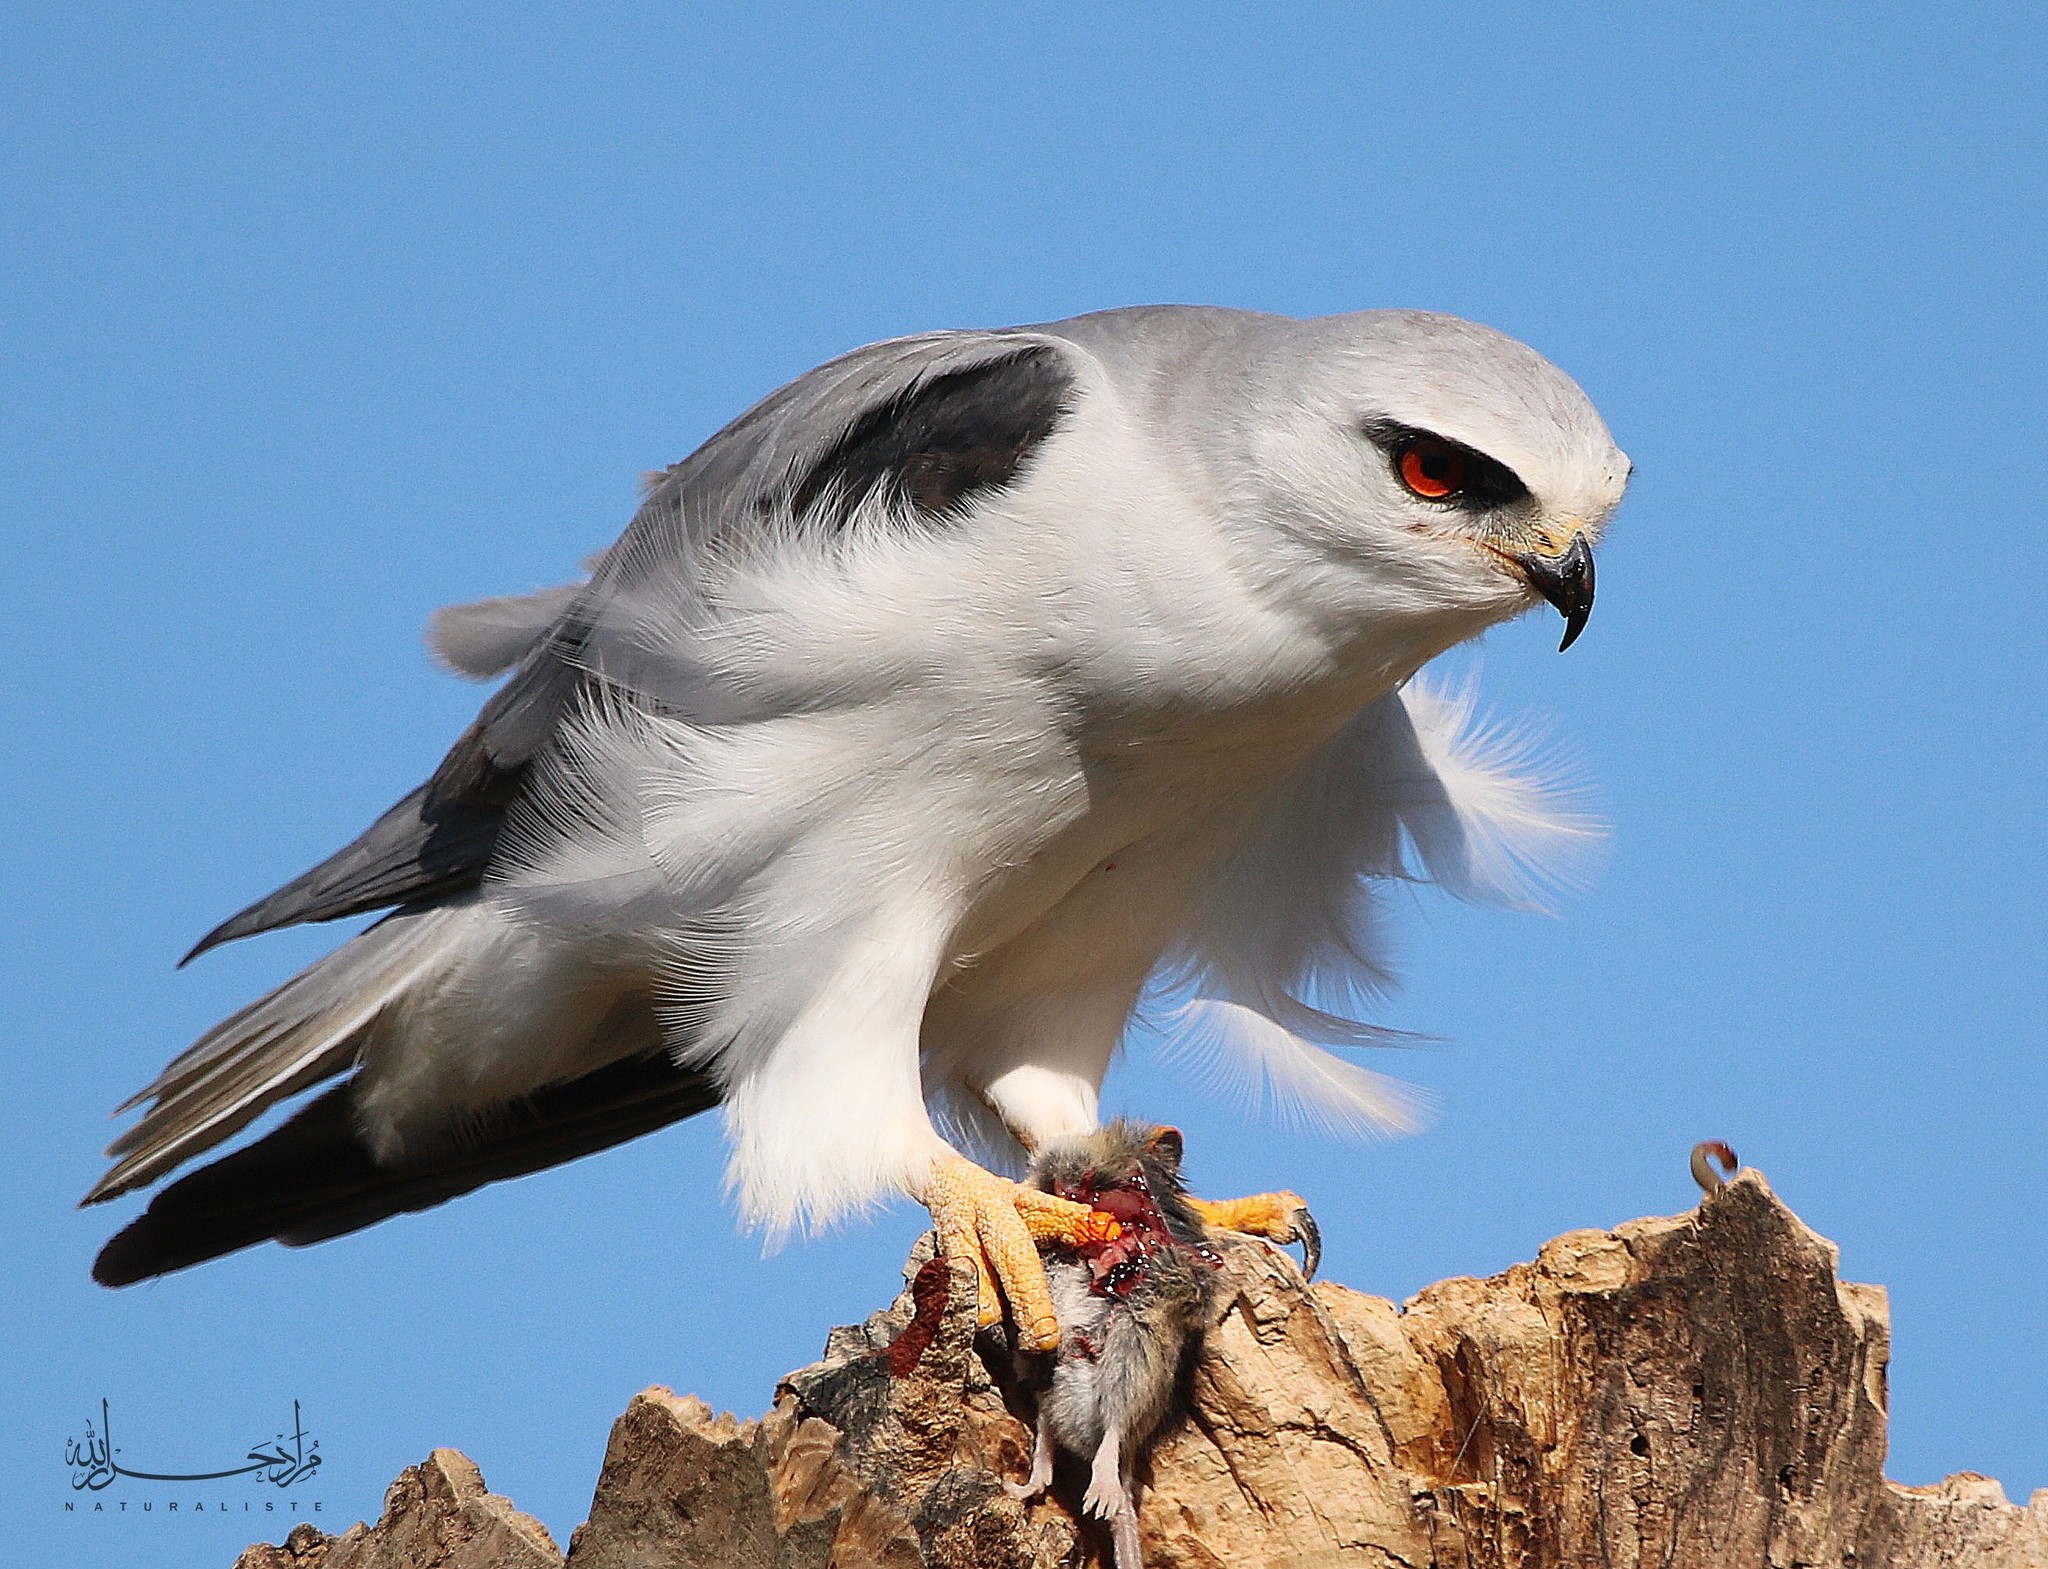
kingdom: Animalia
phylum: Chordata
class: Aves
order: Accipitriformes
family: Accipitridae
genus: Elanus
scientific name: Elanus caeruleus
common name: Black-winged kite
